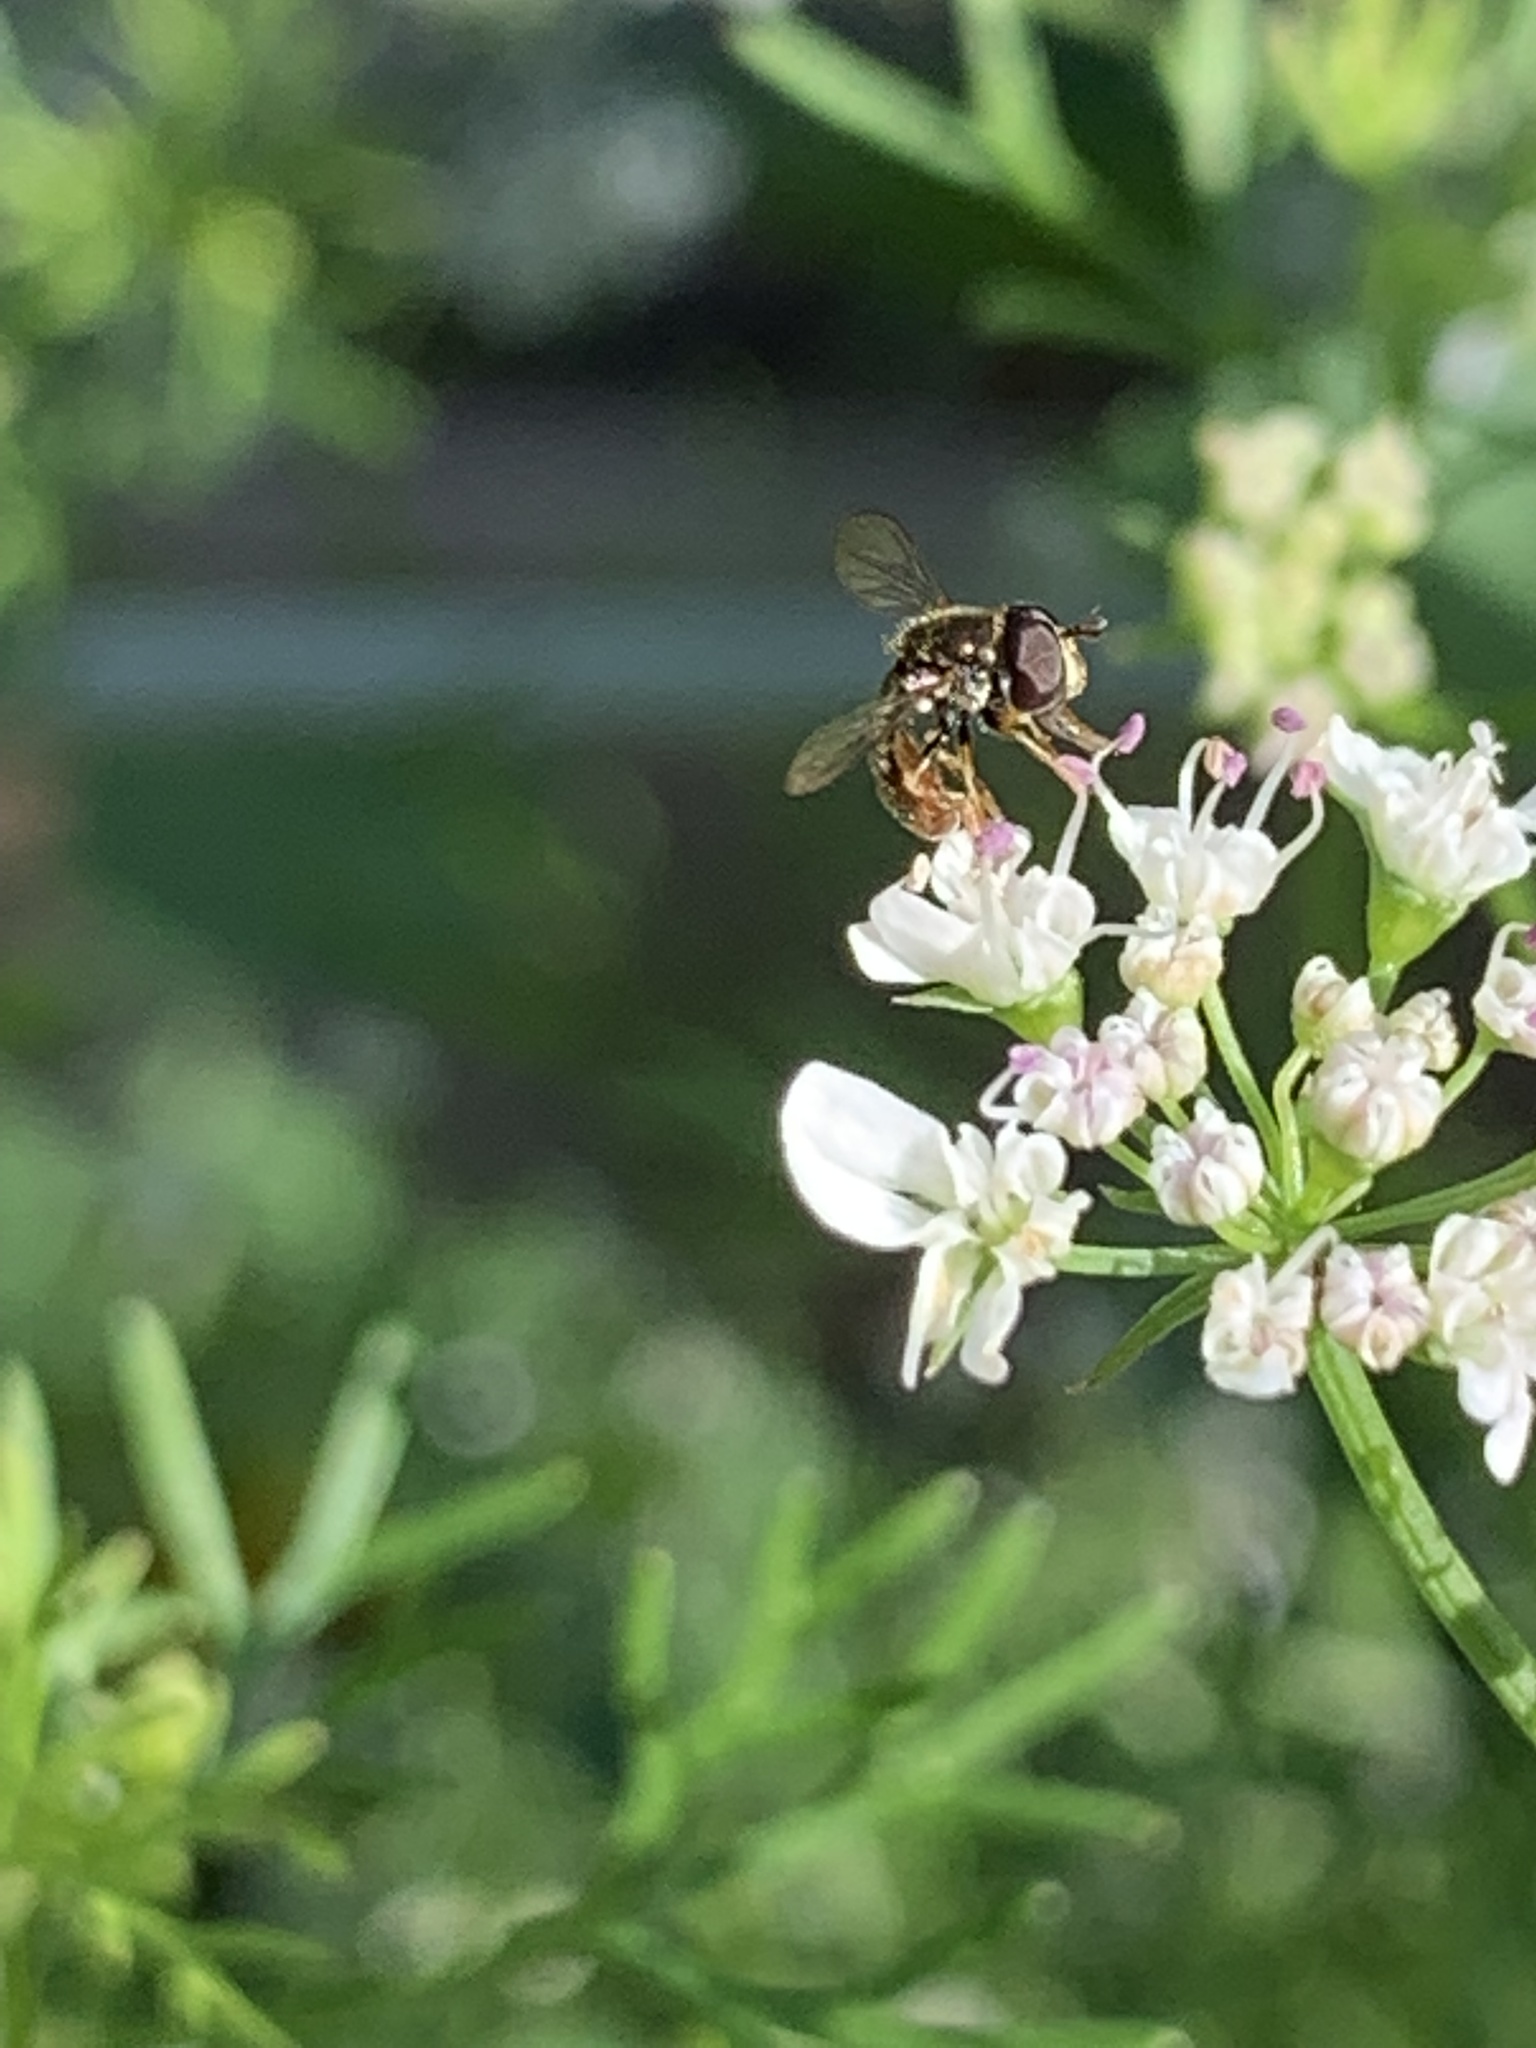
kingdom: Animalia
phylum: Arthropoda
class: Insecta
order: Diptera
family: Syrphidae
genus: Paragus
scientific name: Paragus haemorrhous
